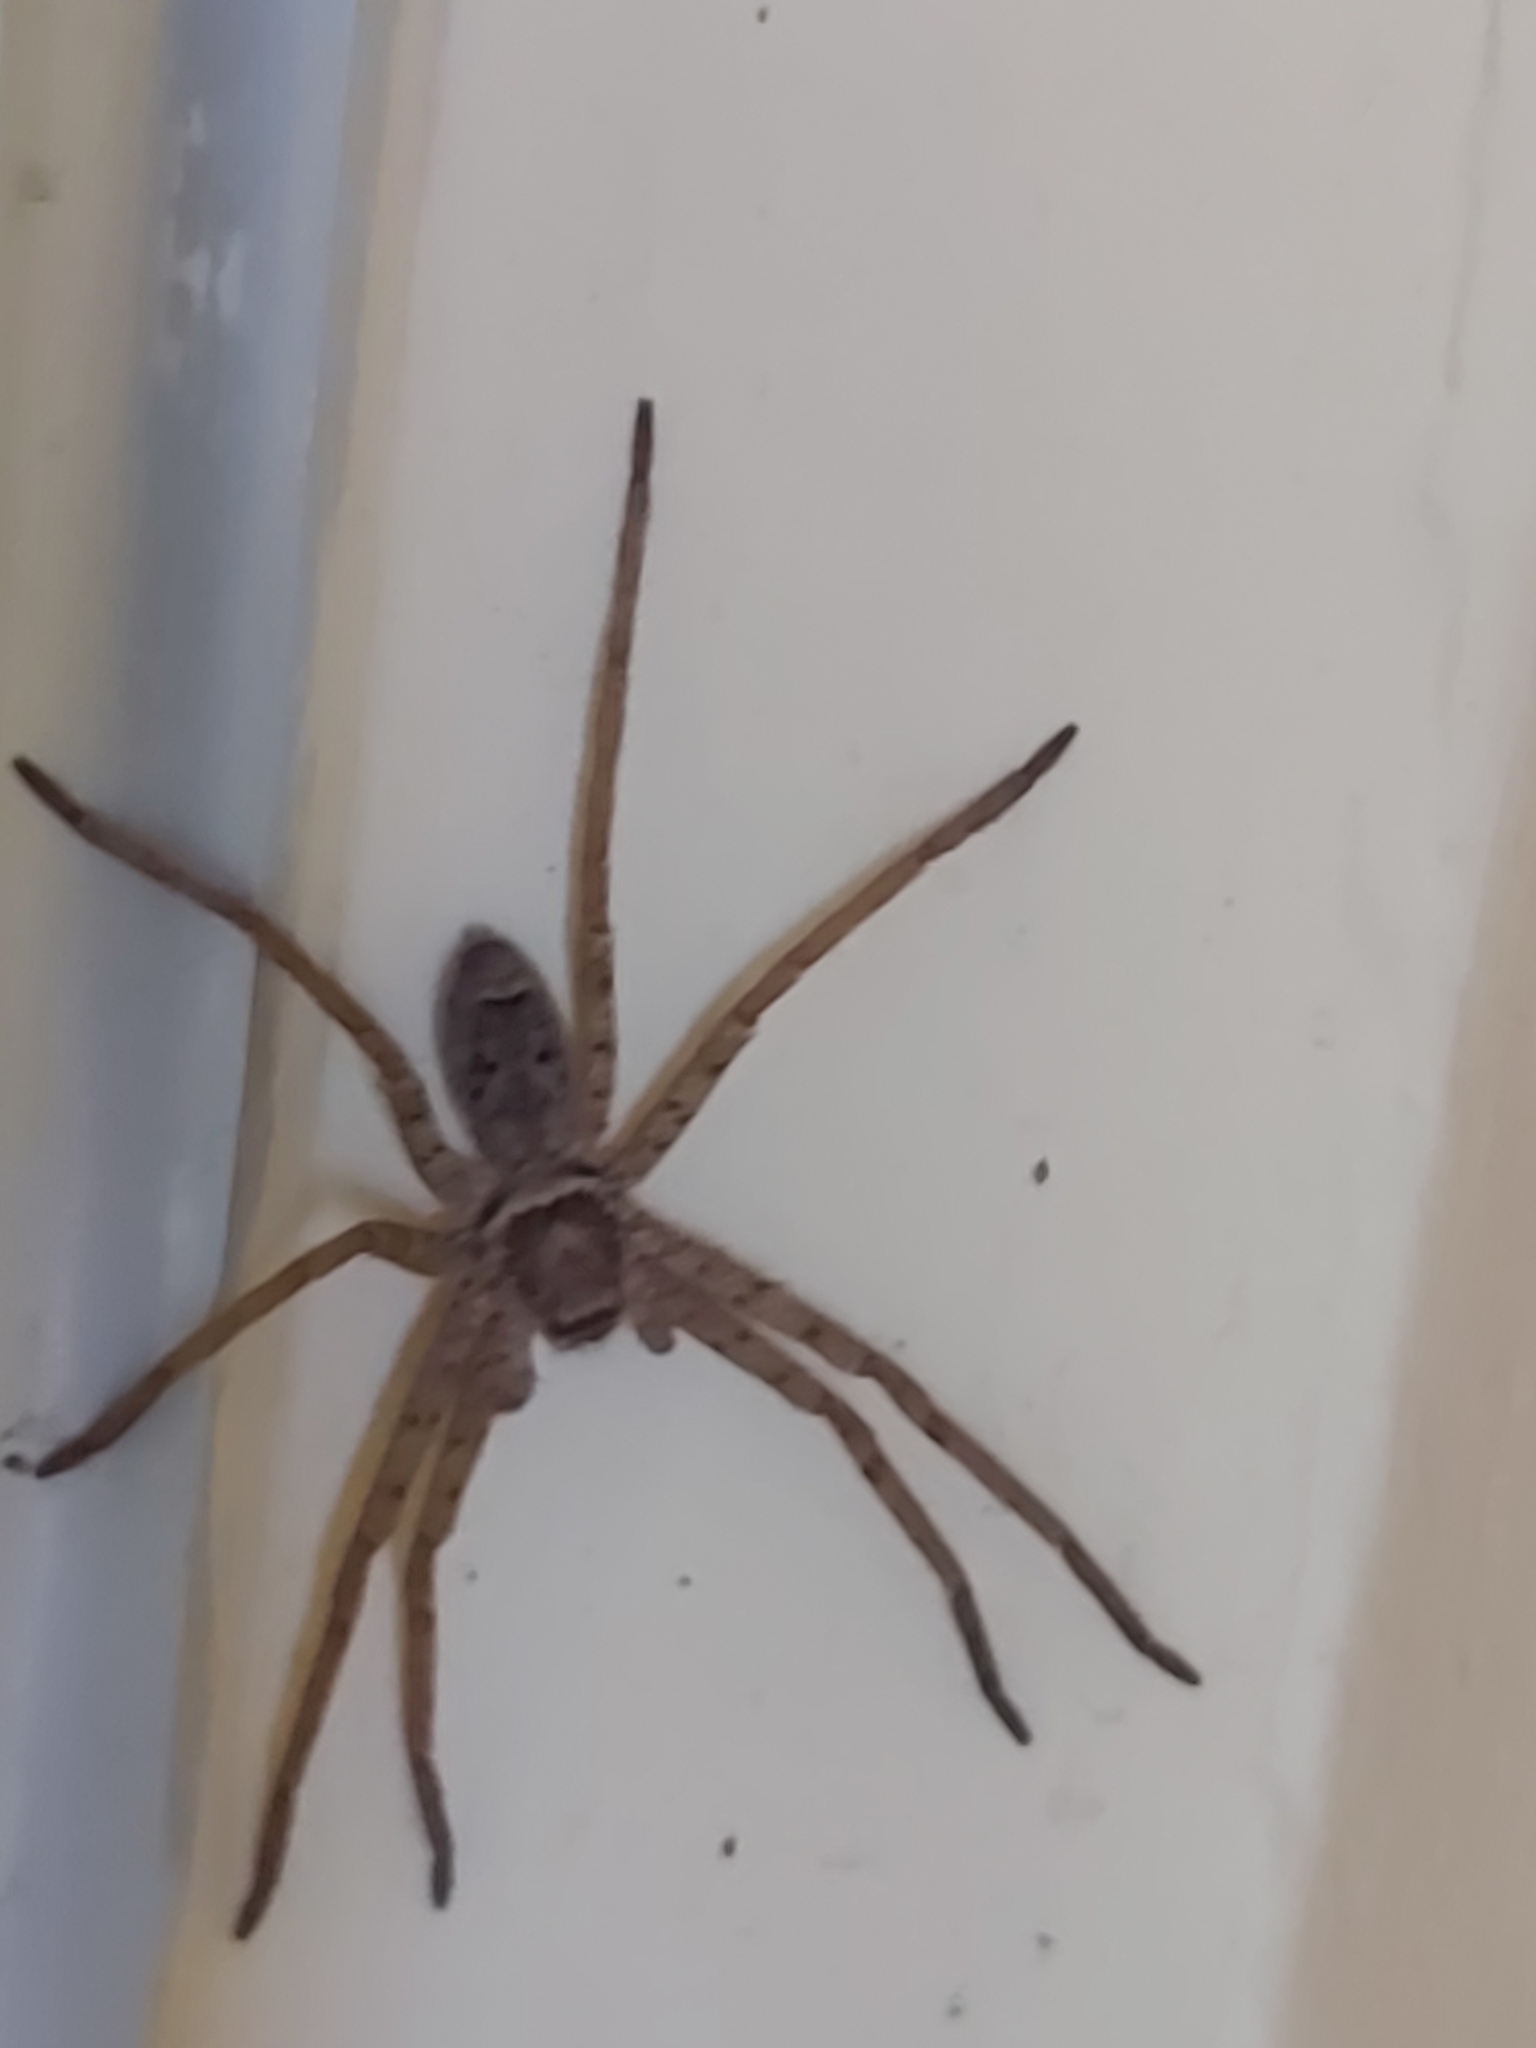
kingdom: Animalia
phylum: Arthropoda
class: Arachnida
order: Araneae
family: Sparassidae
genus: Heteropoda
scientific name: Heteropoda venatoria
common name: Huntsman spider
